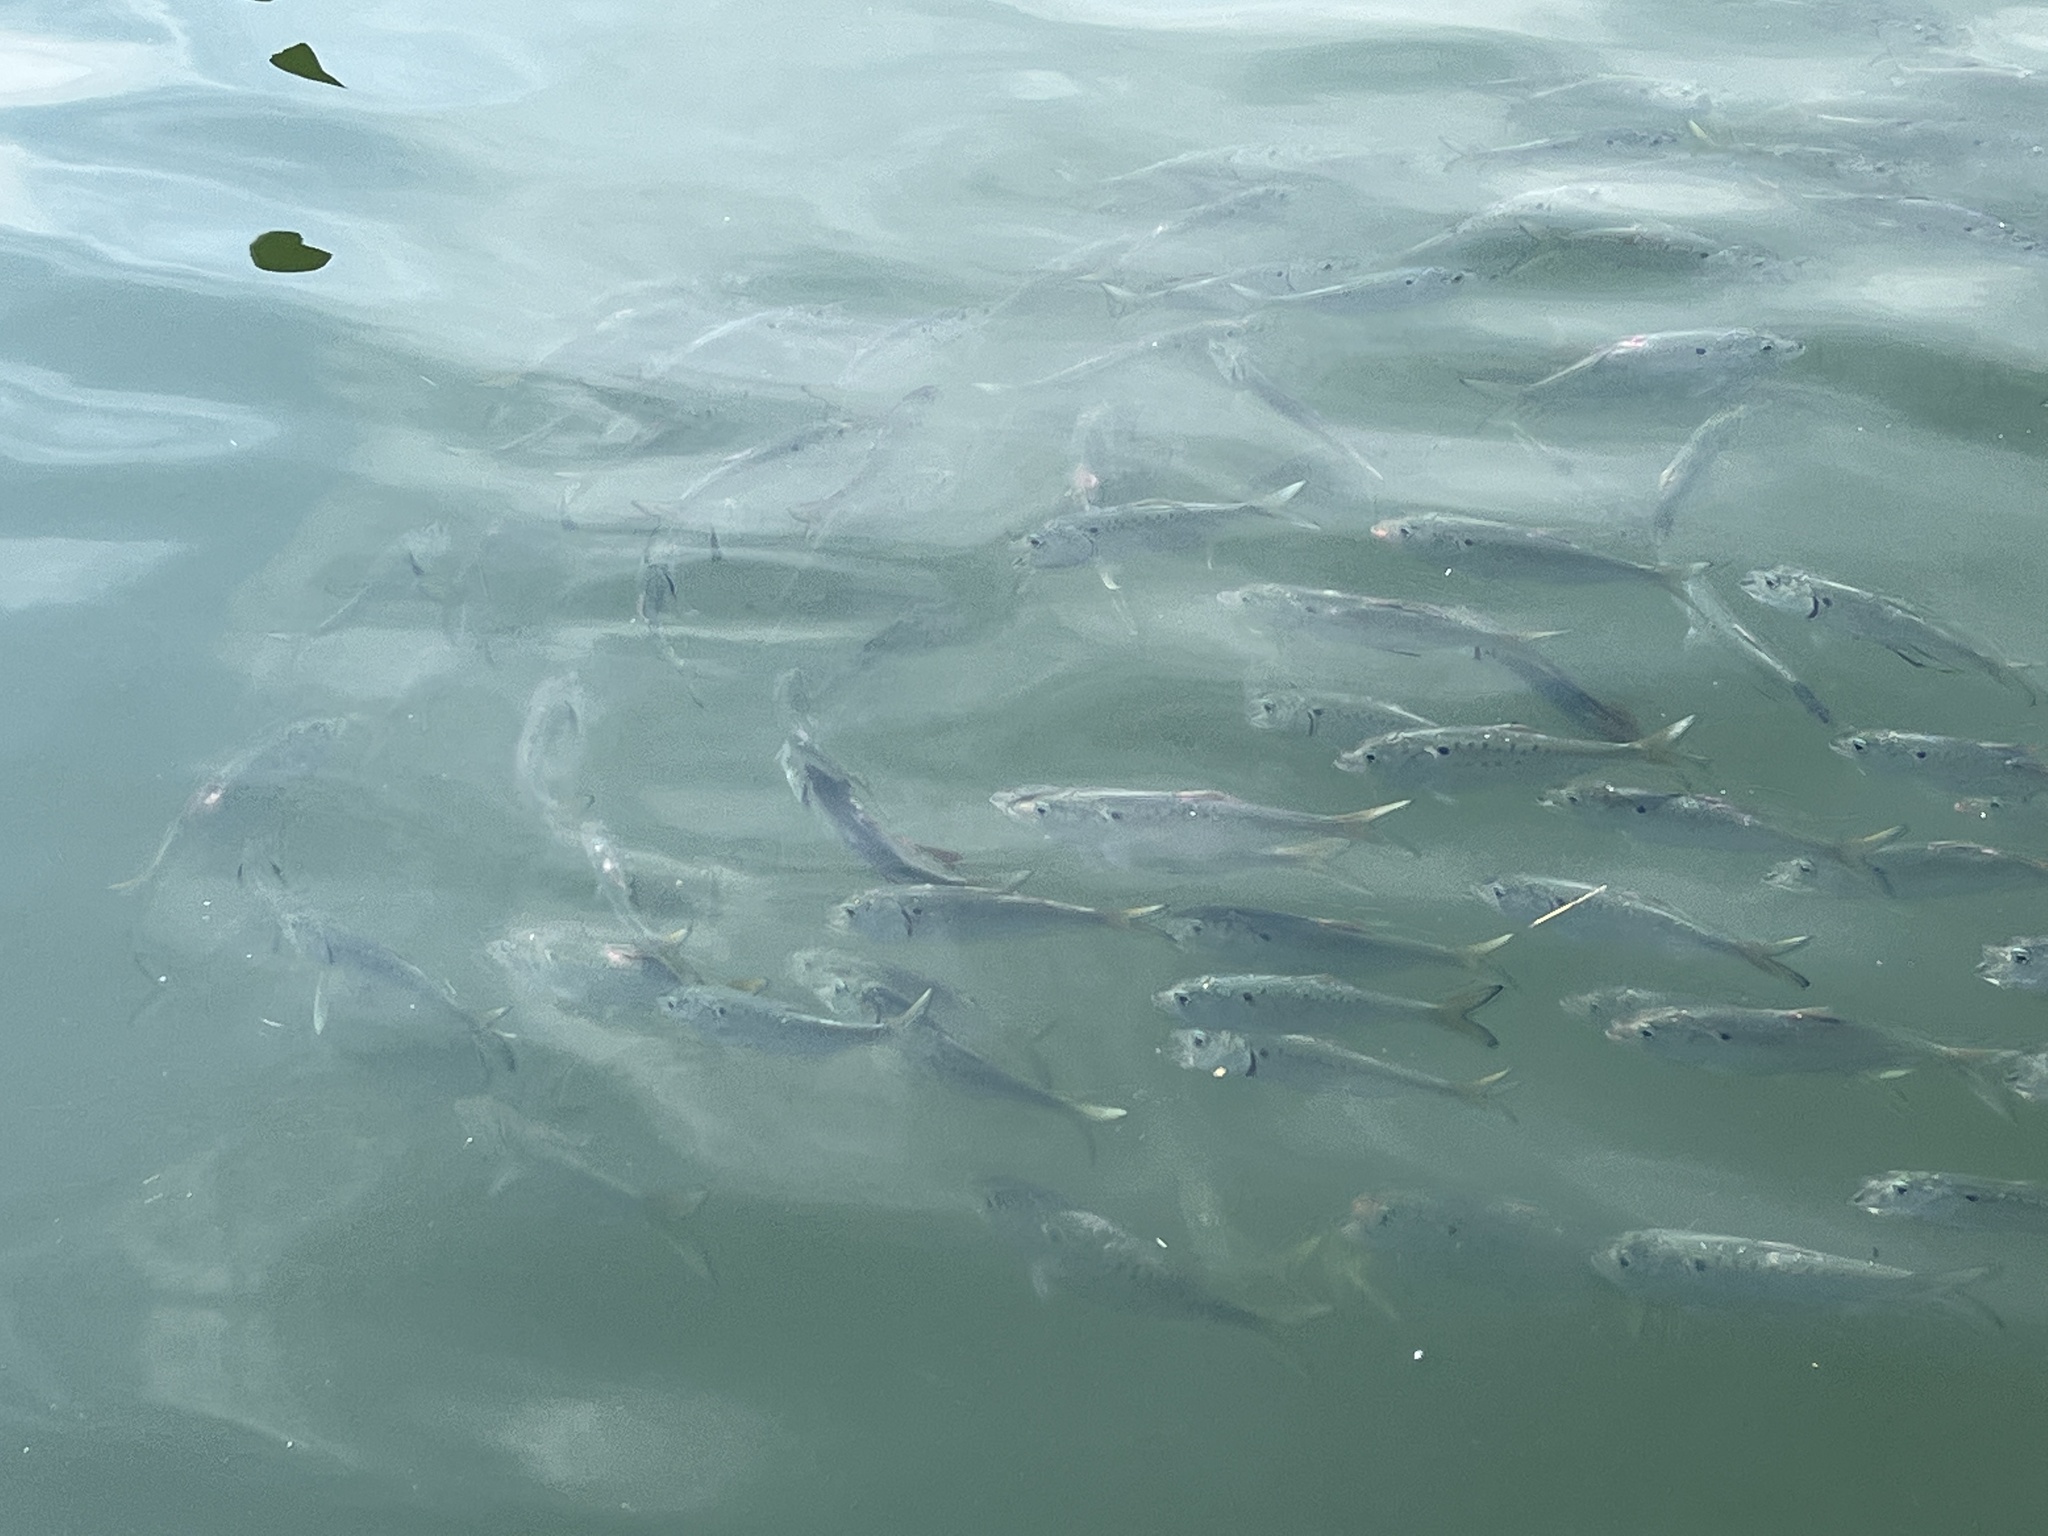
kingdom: Animalia
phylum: Chordata
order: Clupeiformes
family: Clupeidae
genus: Brevoortia
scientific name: Brevoortia tyrannus
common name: Atlantic menhaden
